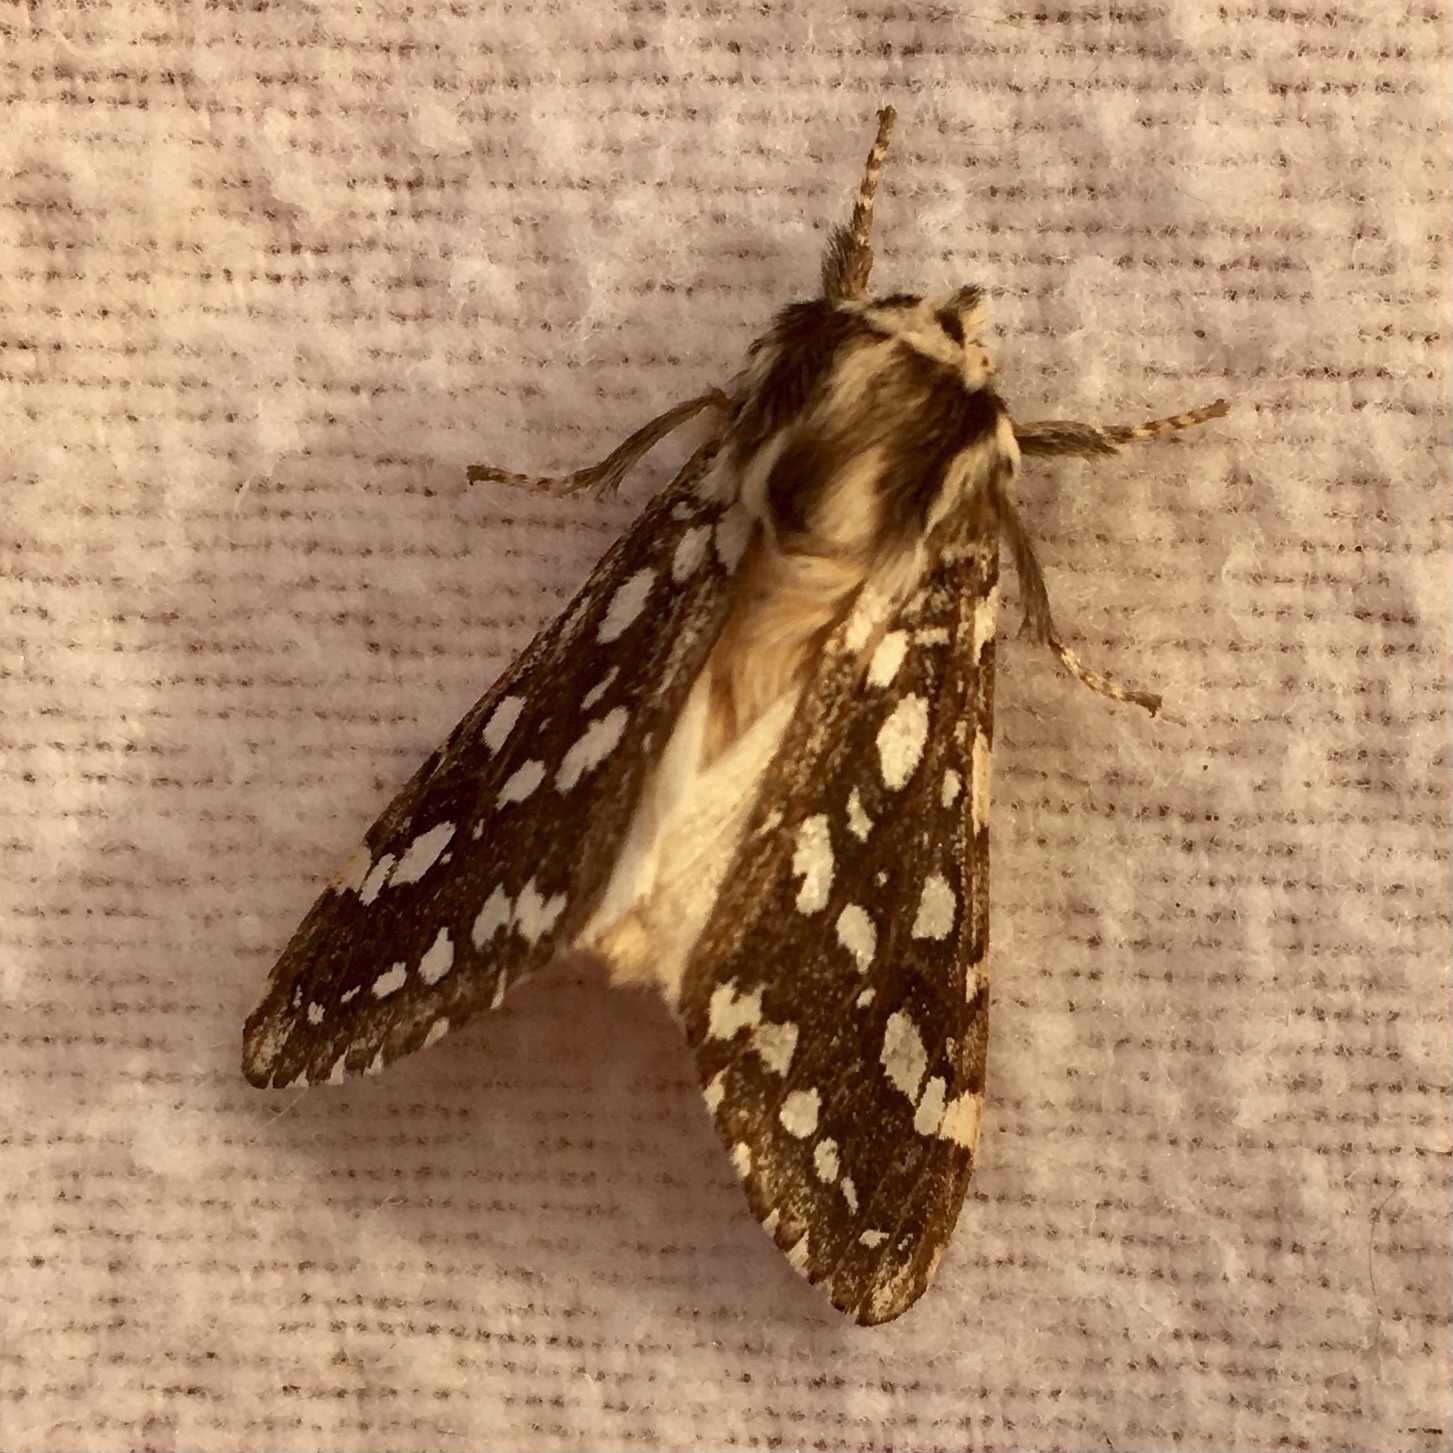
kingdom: Animalia
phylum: Arthropoda
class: Insecta
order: Lepidoptera
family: Erebidae
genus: Lophocampa
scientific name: Lophocampa argentata
